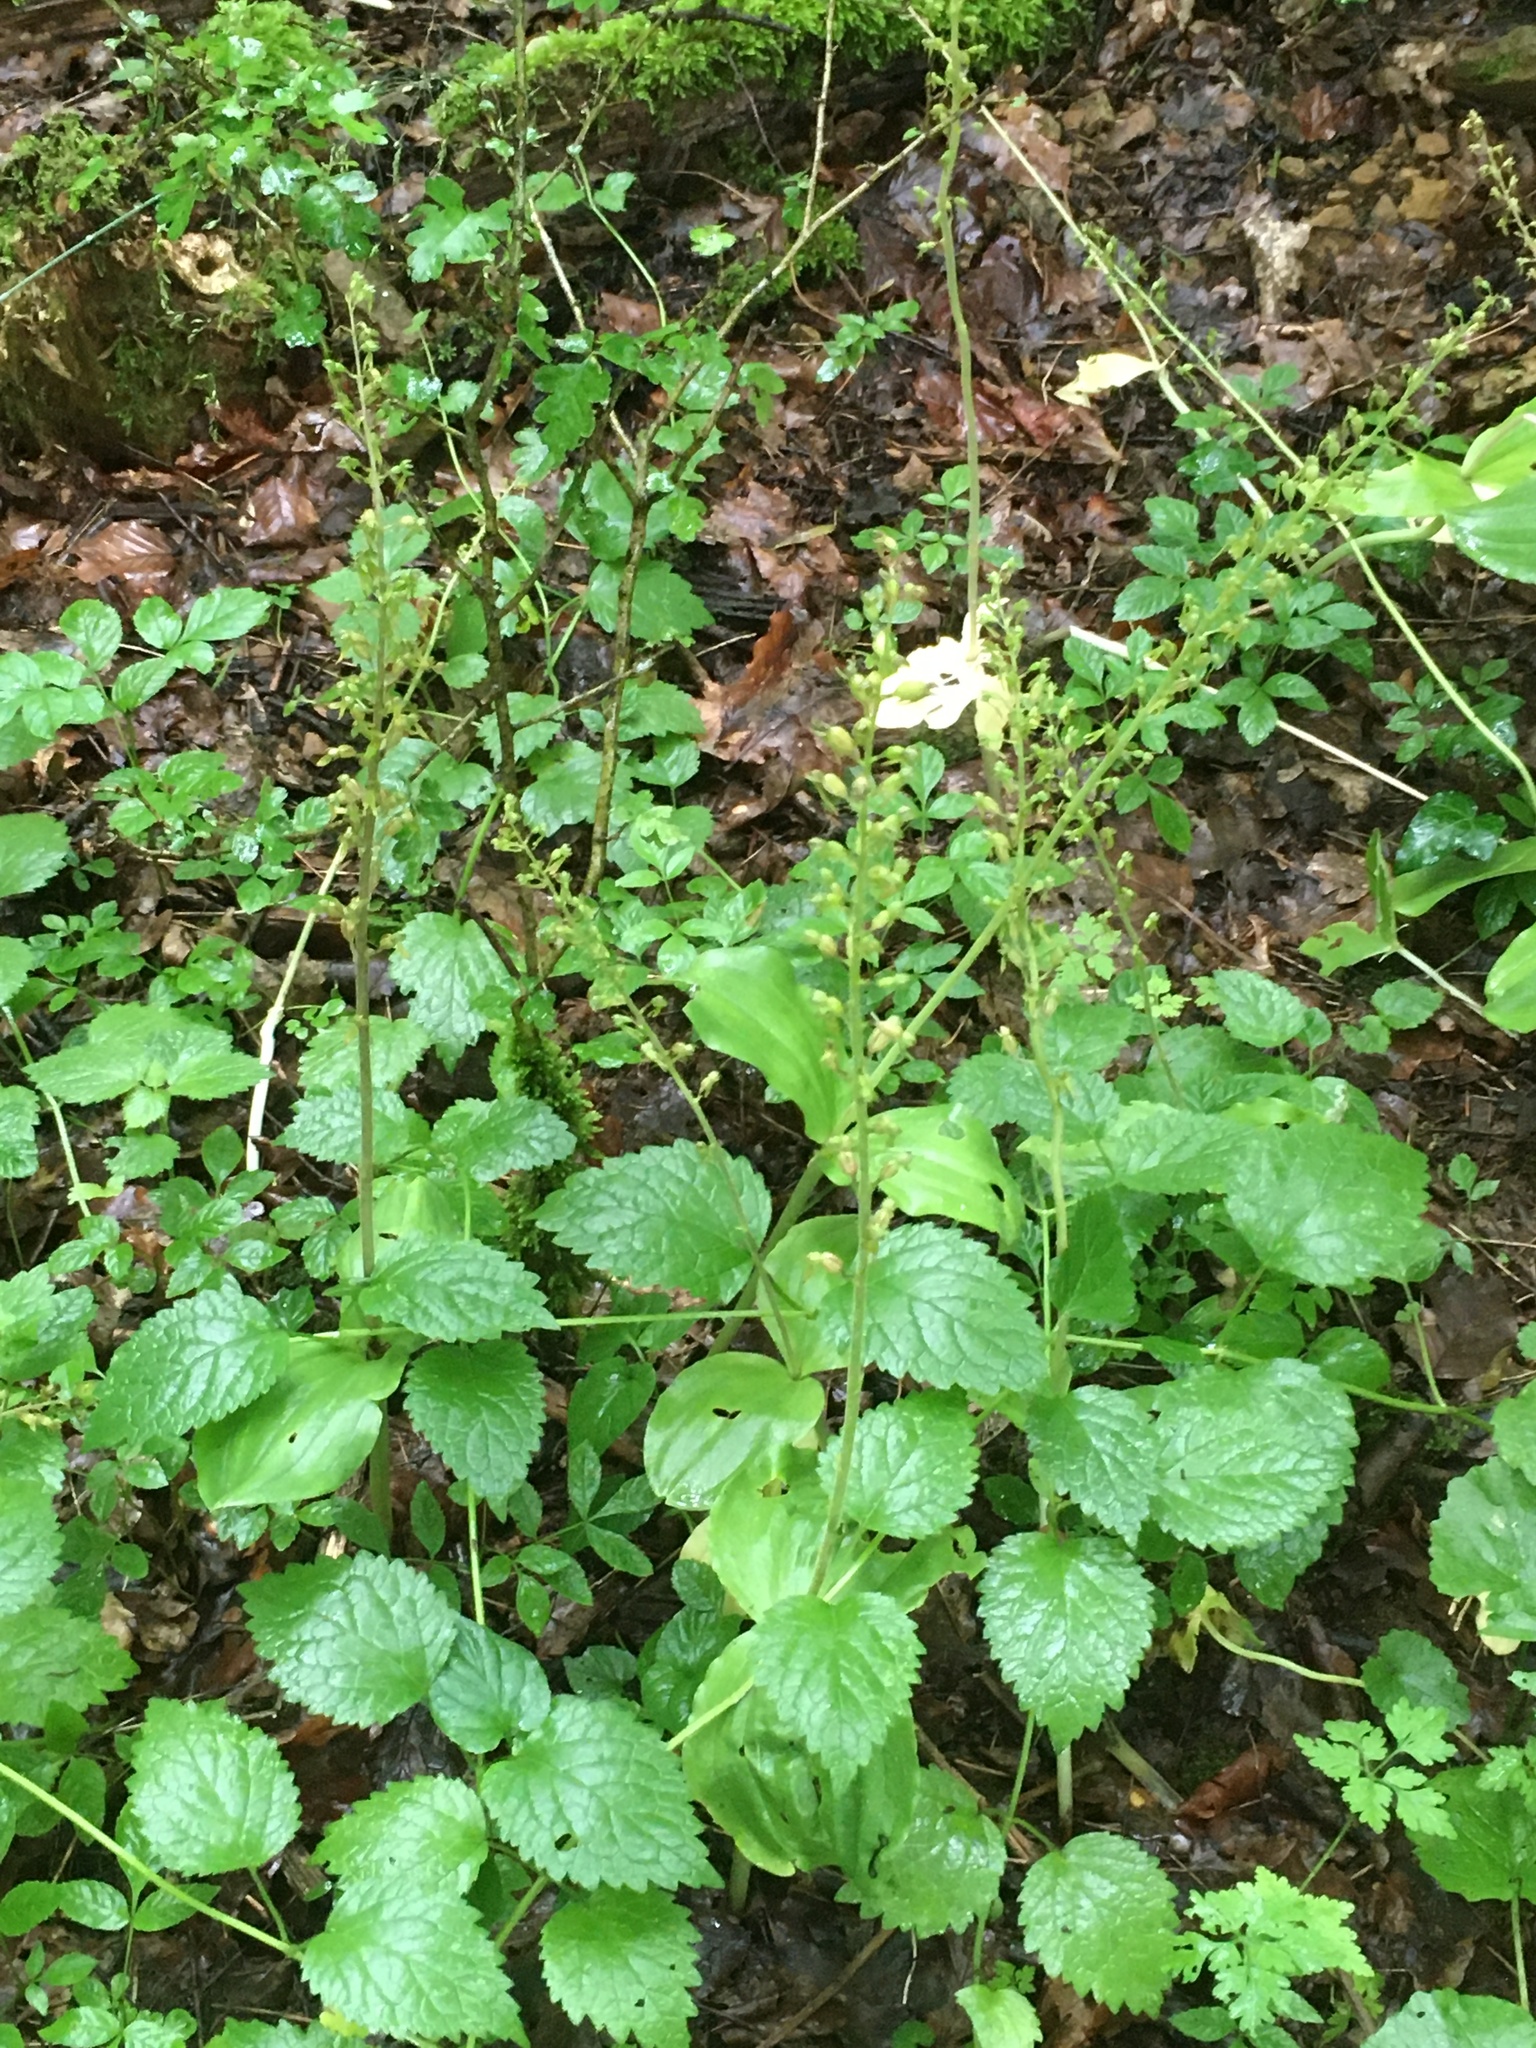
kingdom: Plantae
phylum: Tracheophyta
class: Liliopsida
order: Asparagales
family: Orchidaceae
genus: Neottia
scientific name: Neottia ovata
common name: Common twayblade
